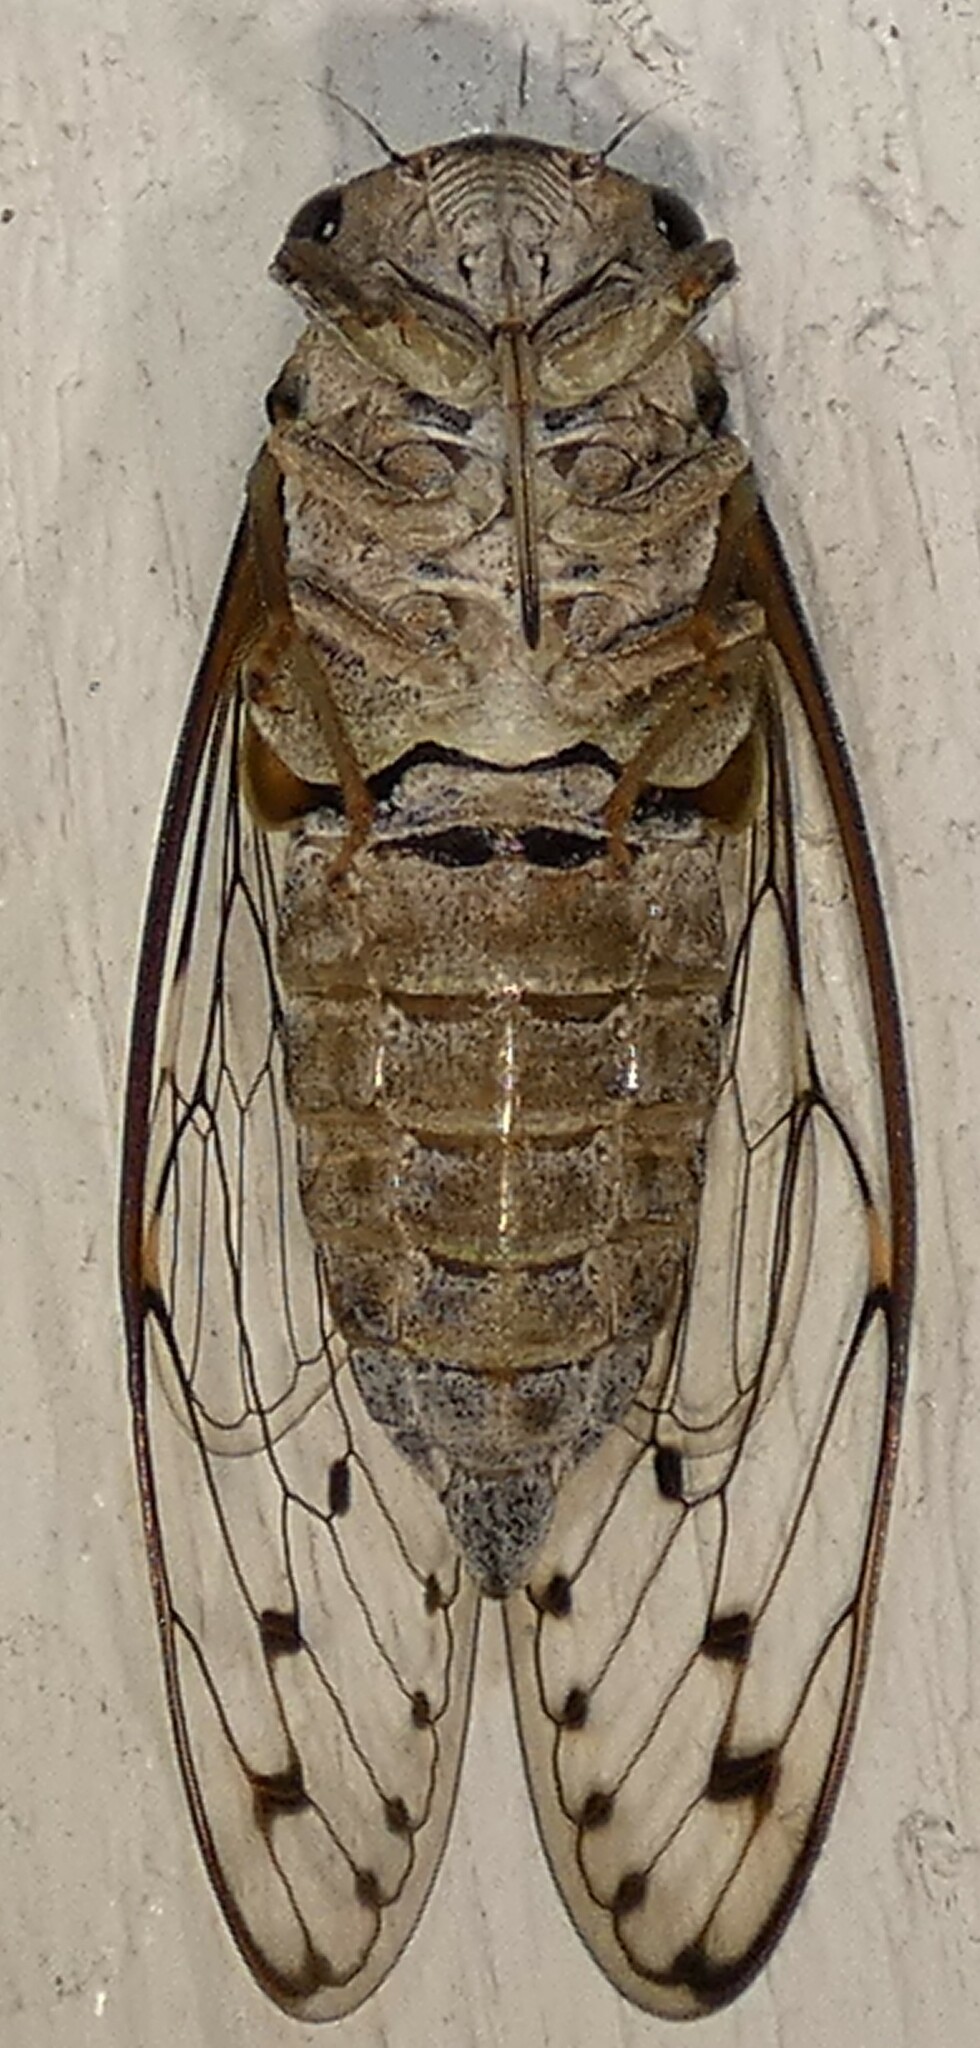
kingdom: Animalia
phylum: Arthropoda
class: Insecta
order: Hemiptera
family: Cicadidae
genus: Neocicada
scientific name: Neocicada hieroglyphica
